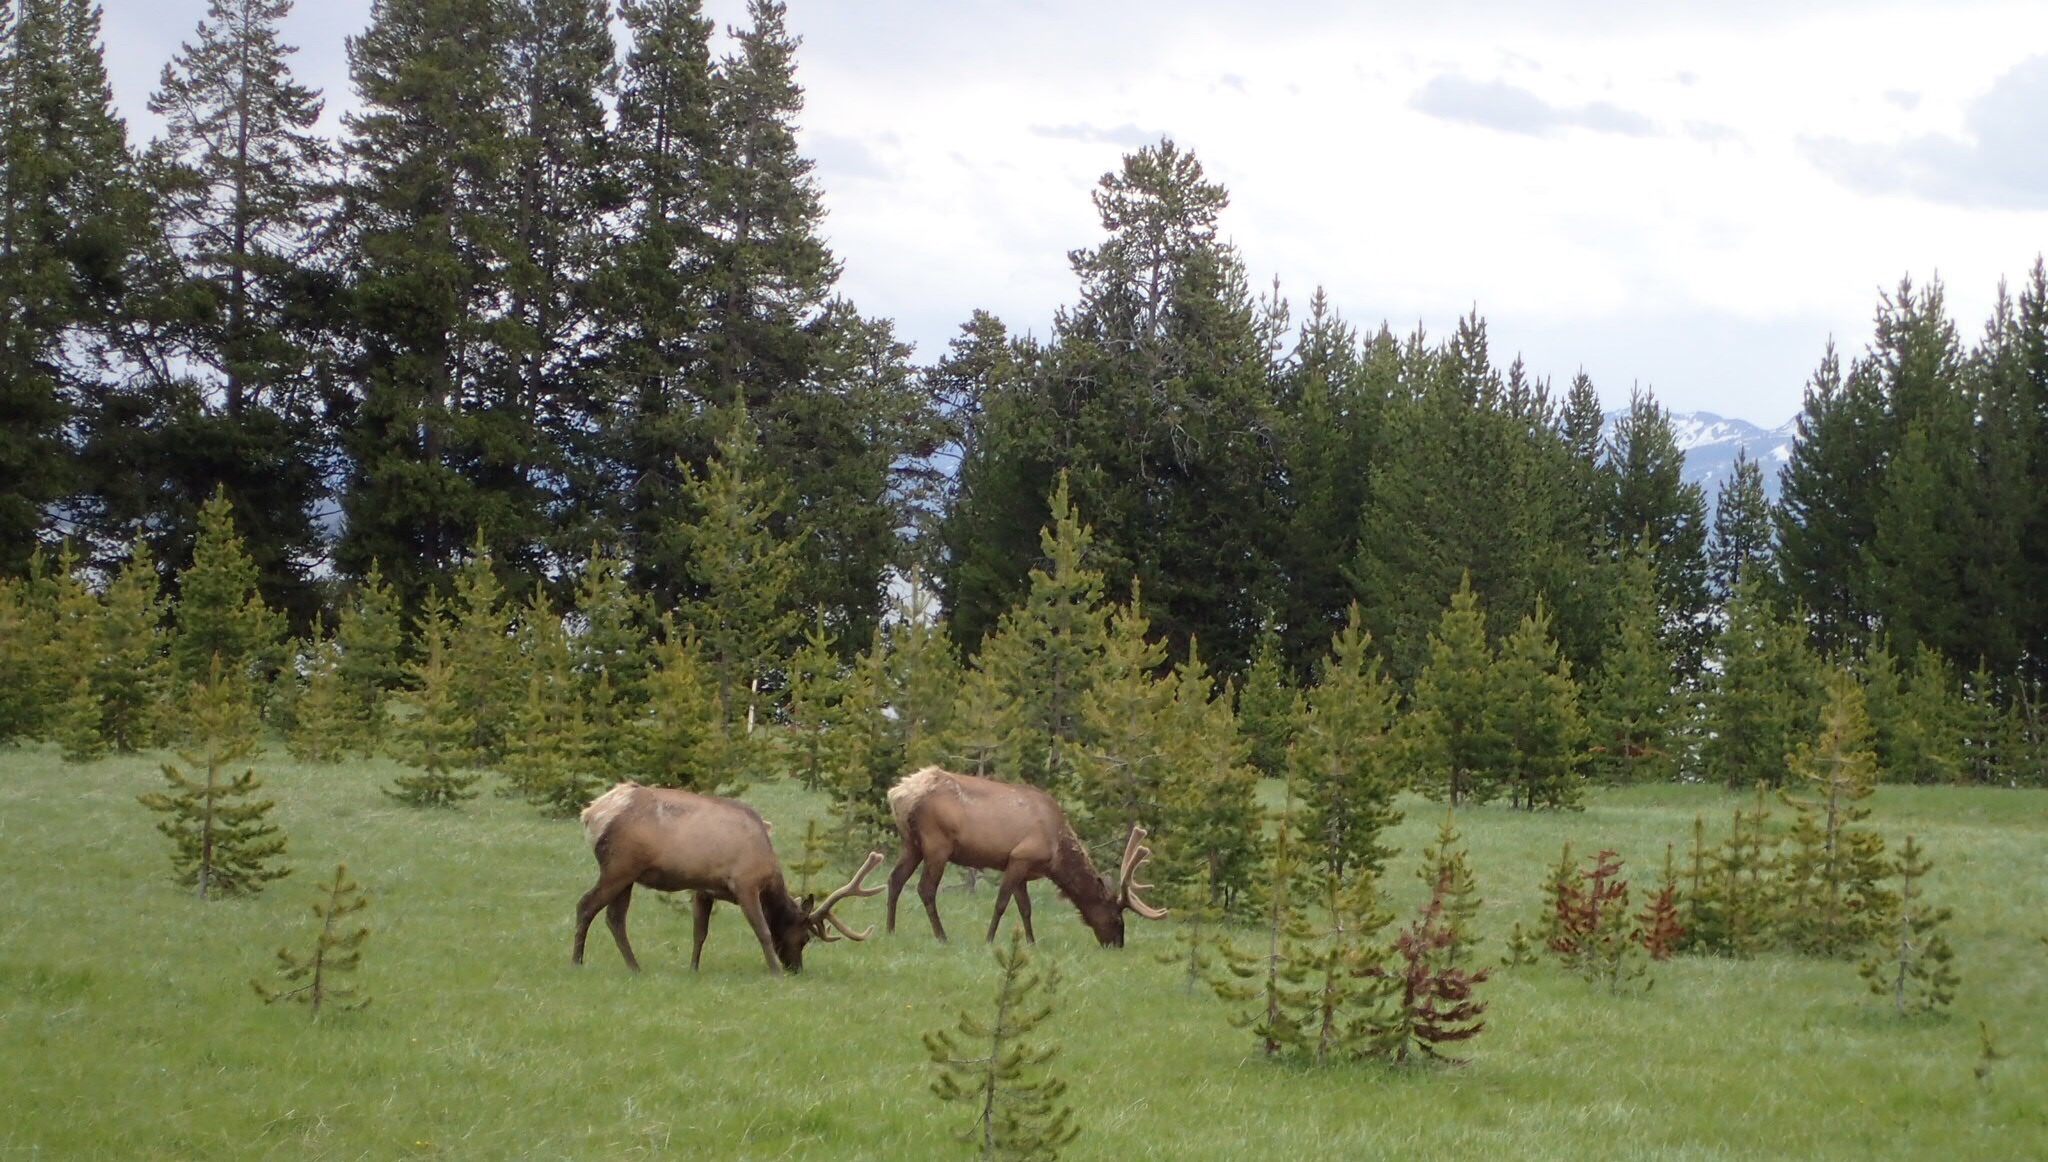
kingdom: Animalia
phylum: Chordata
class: Mammalia
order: Artiodactyla
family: Cervidae
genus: Cervus
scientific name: Cervus elaphus
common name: Red deer
